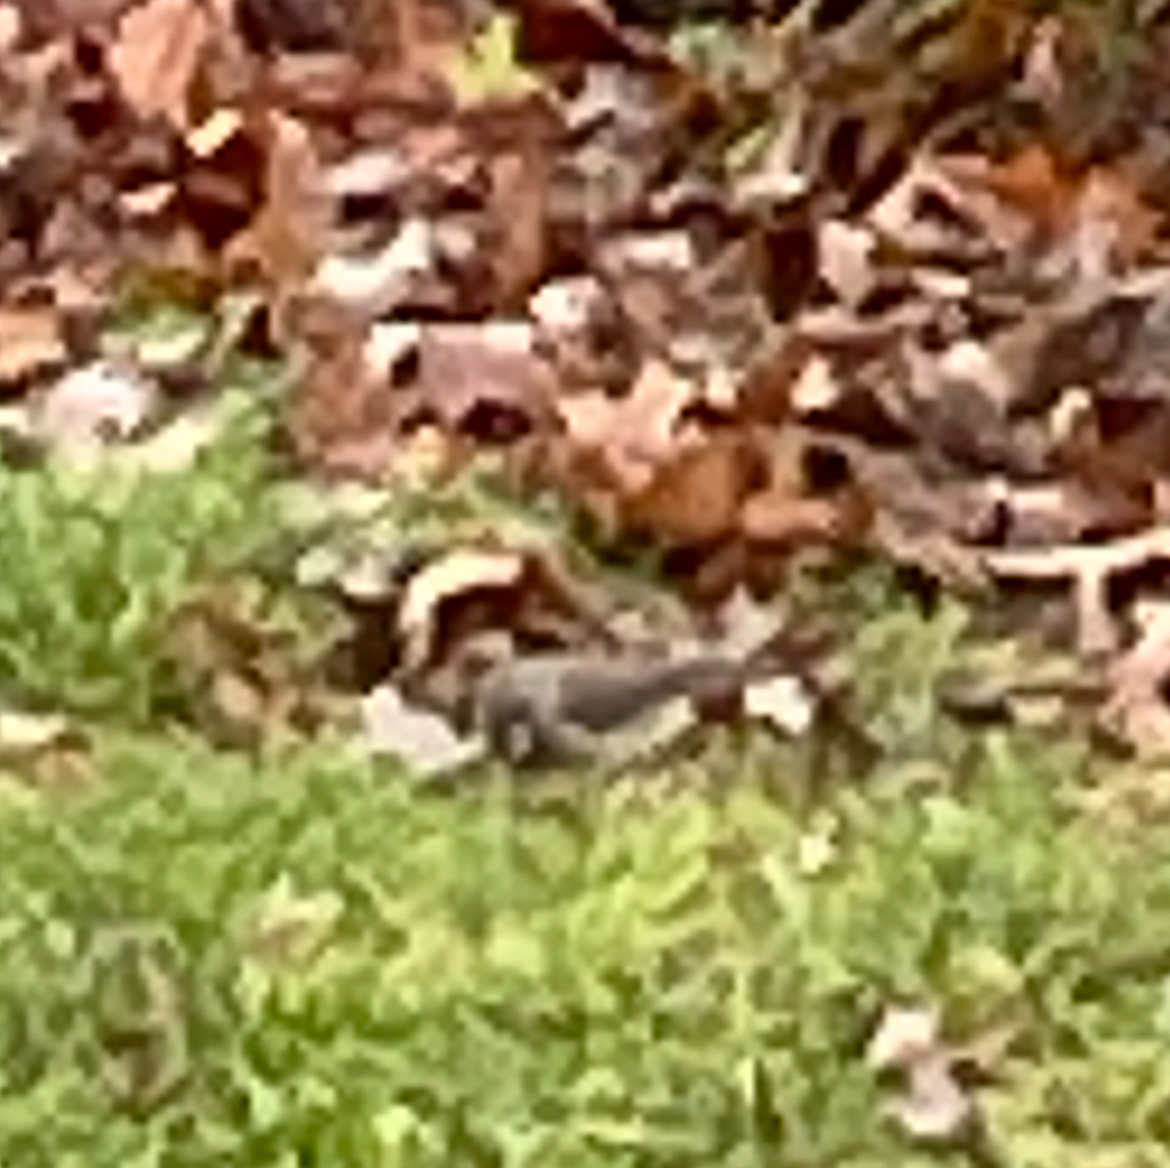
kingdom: Animalia
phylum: Chordata
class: Aves
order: Passeriformes
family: Passerellidae
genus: Junco
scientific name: Junco hyemalis
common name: Dark-eyed junco
